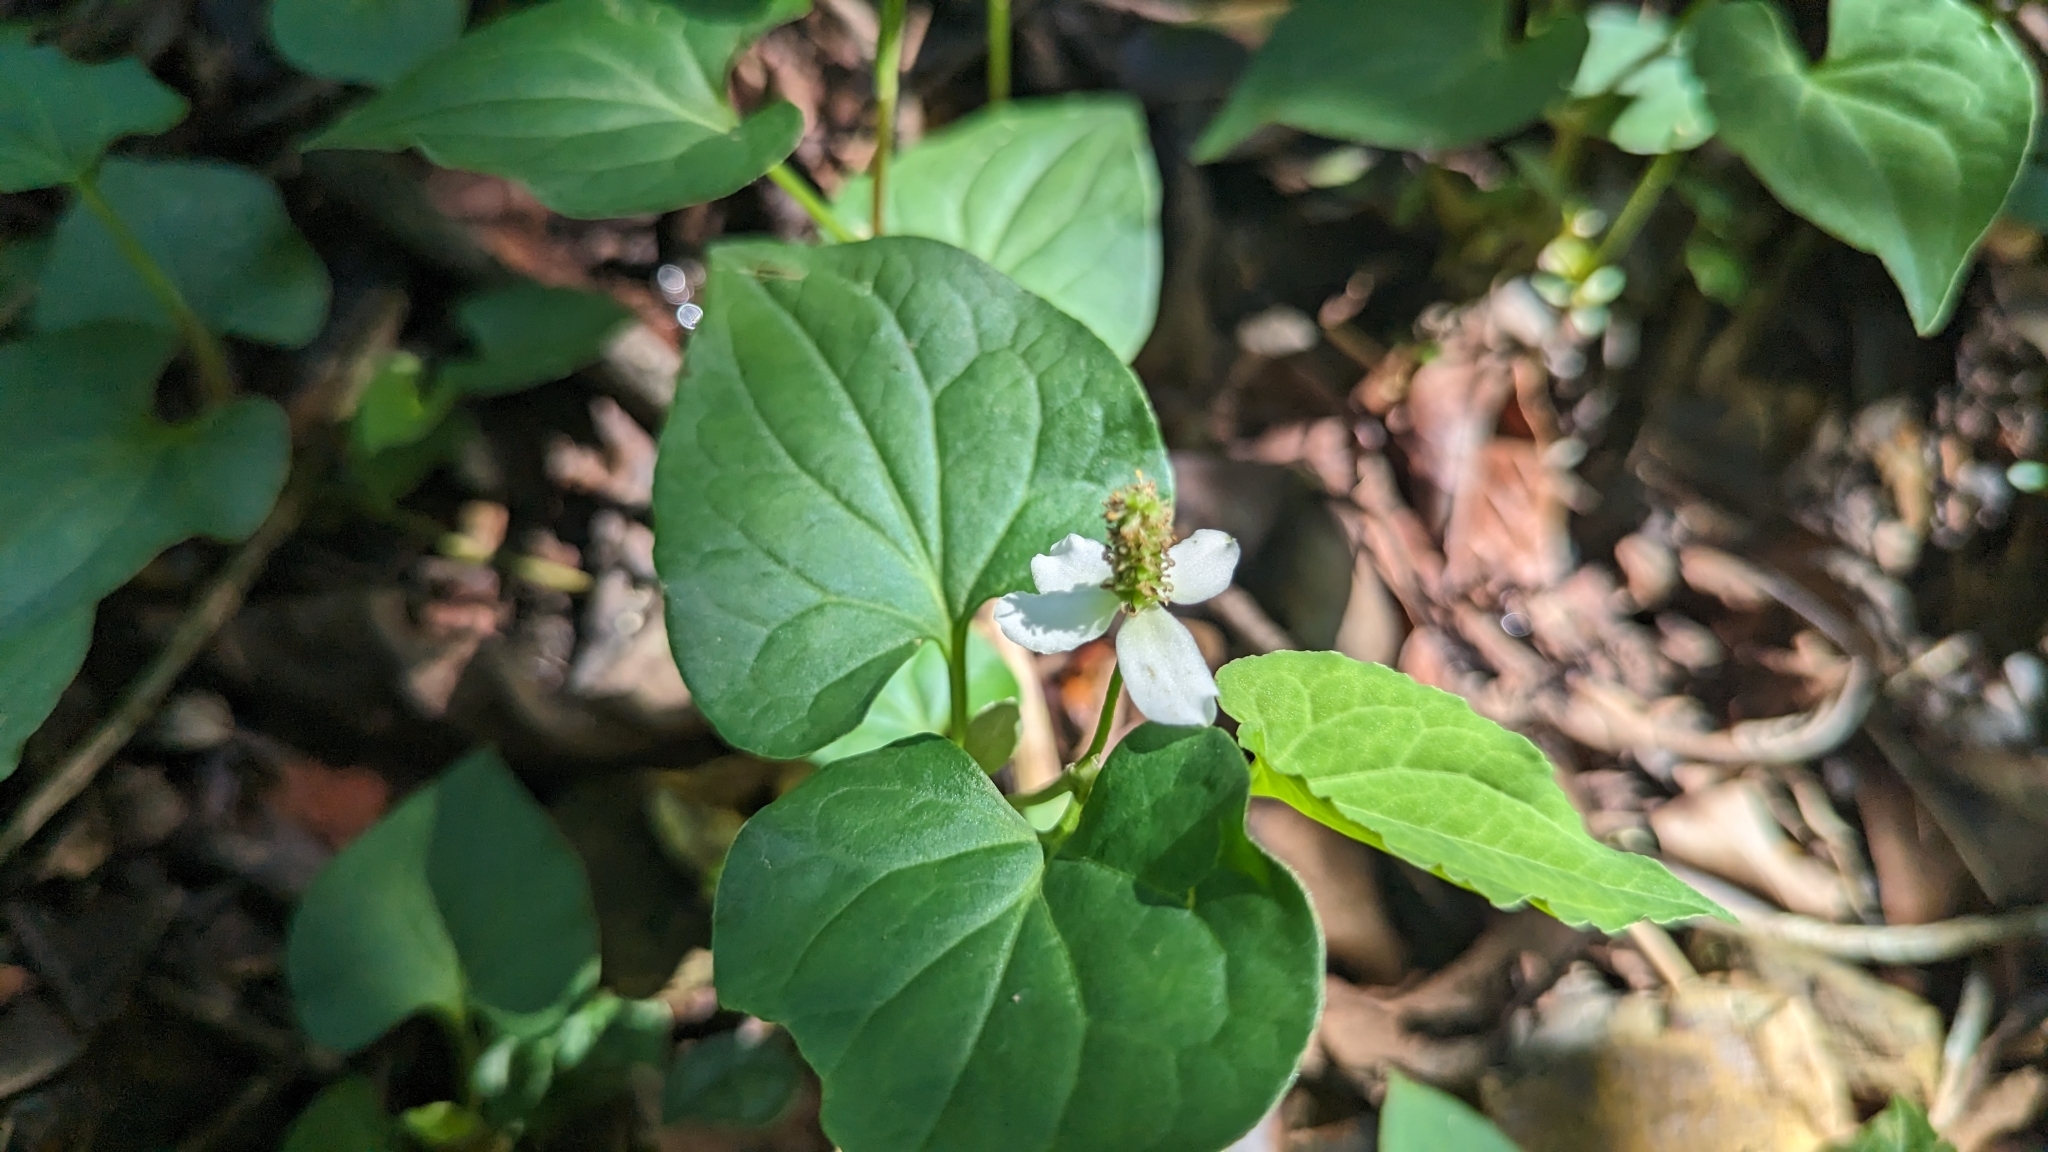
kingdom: Plantae
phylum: Tracheophyta
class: Magnoliopsida
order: Piperales
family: Saururaceae
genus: Houttuynia
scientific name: Houttuynia cordata
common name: Chameleon
